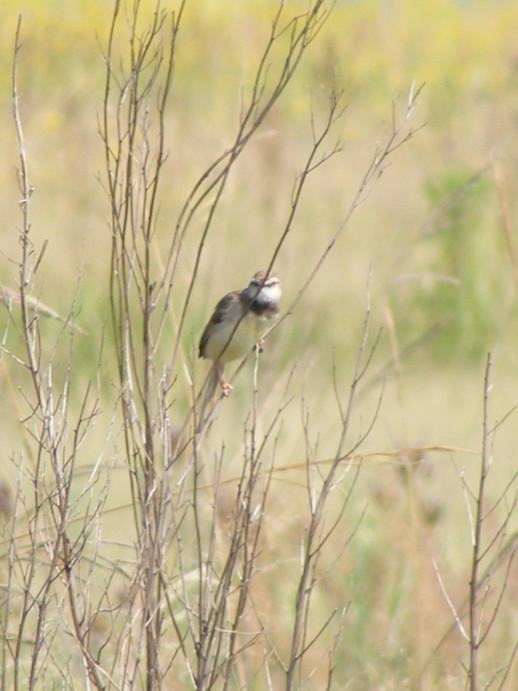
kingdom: Animalia
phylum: Chordata
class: Aves
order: Passeriformes
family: Cisticolidae
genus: Prinia
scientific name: Prinia flavicans
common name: Black-chested prinia
